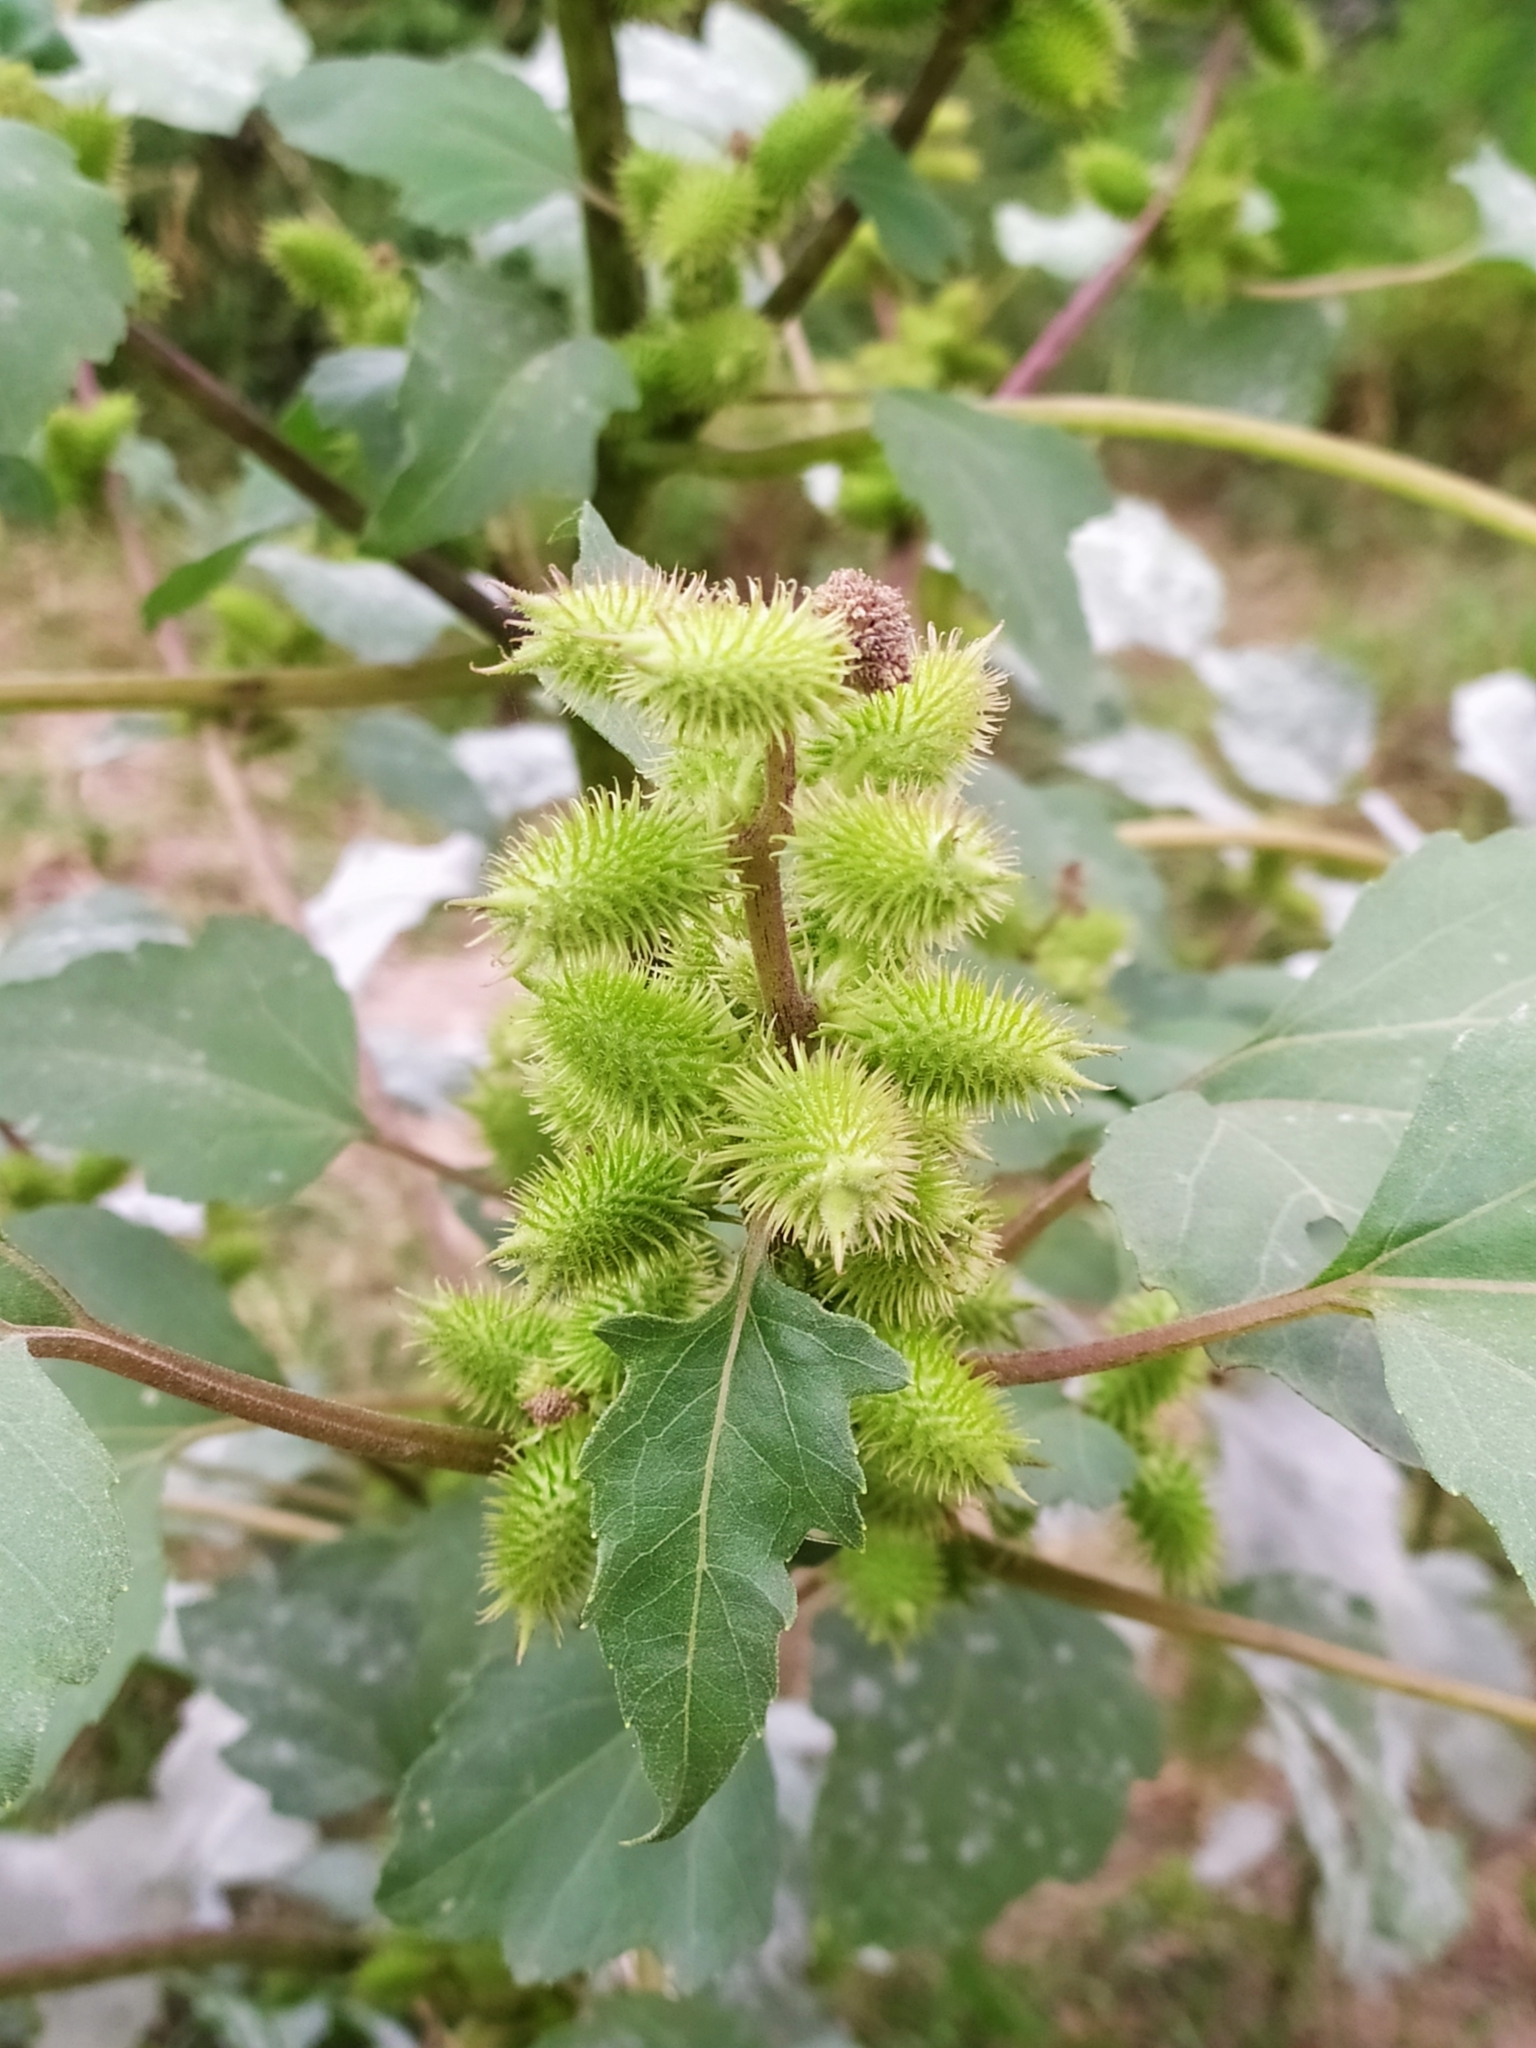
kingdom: Plantae
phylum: Tracheophyta
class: Magnoliopsida
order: Asterales
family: Asteraceae
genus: Xanthium
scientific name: Xanthium strumarium
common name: Rough cocklebur
